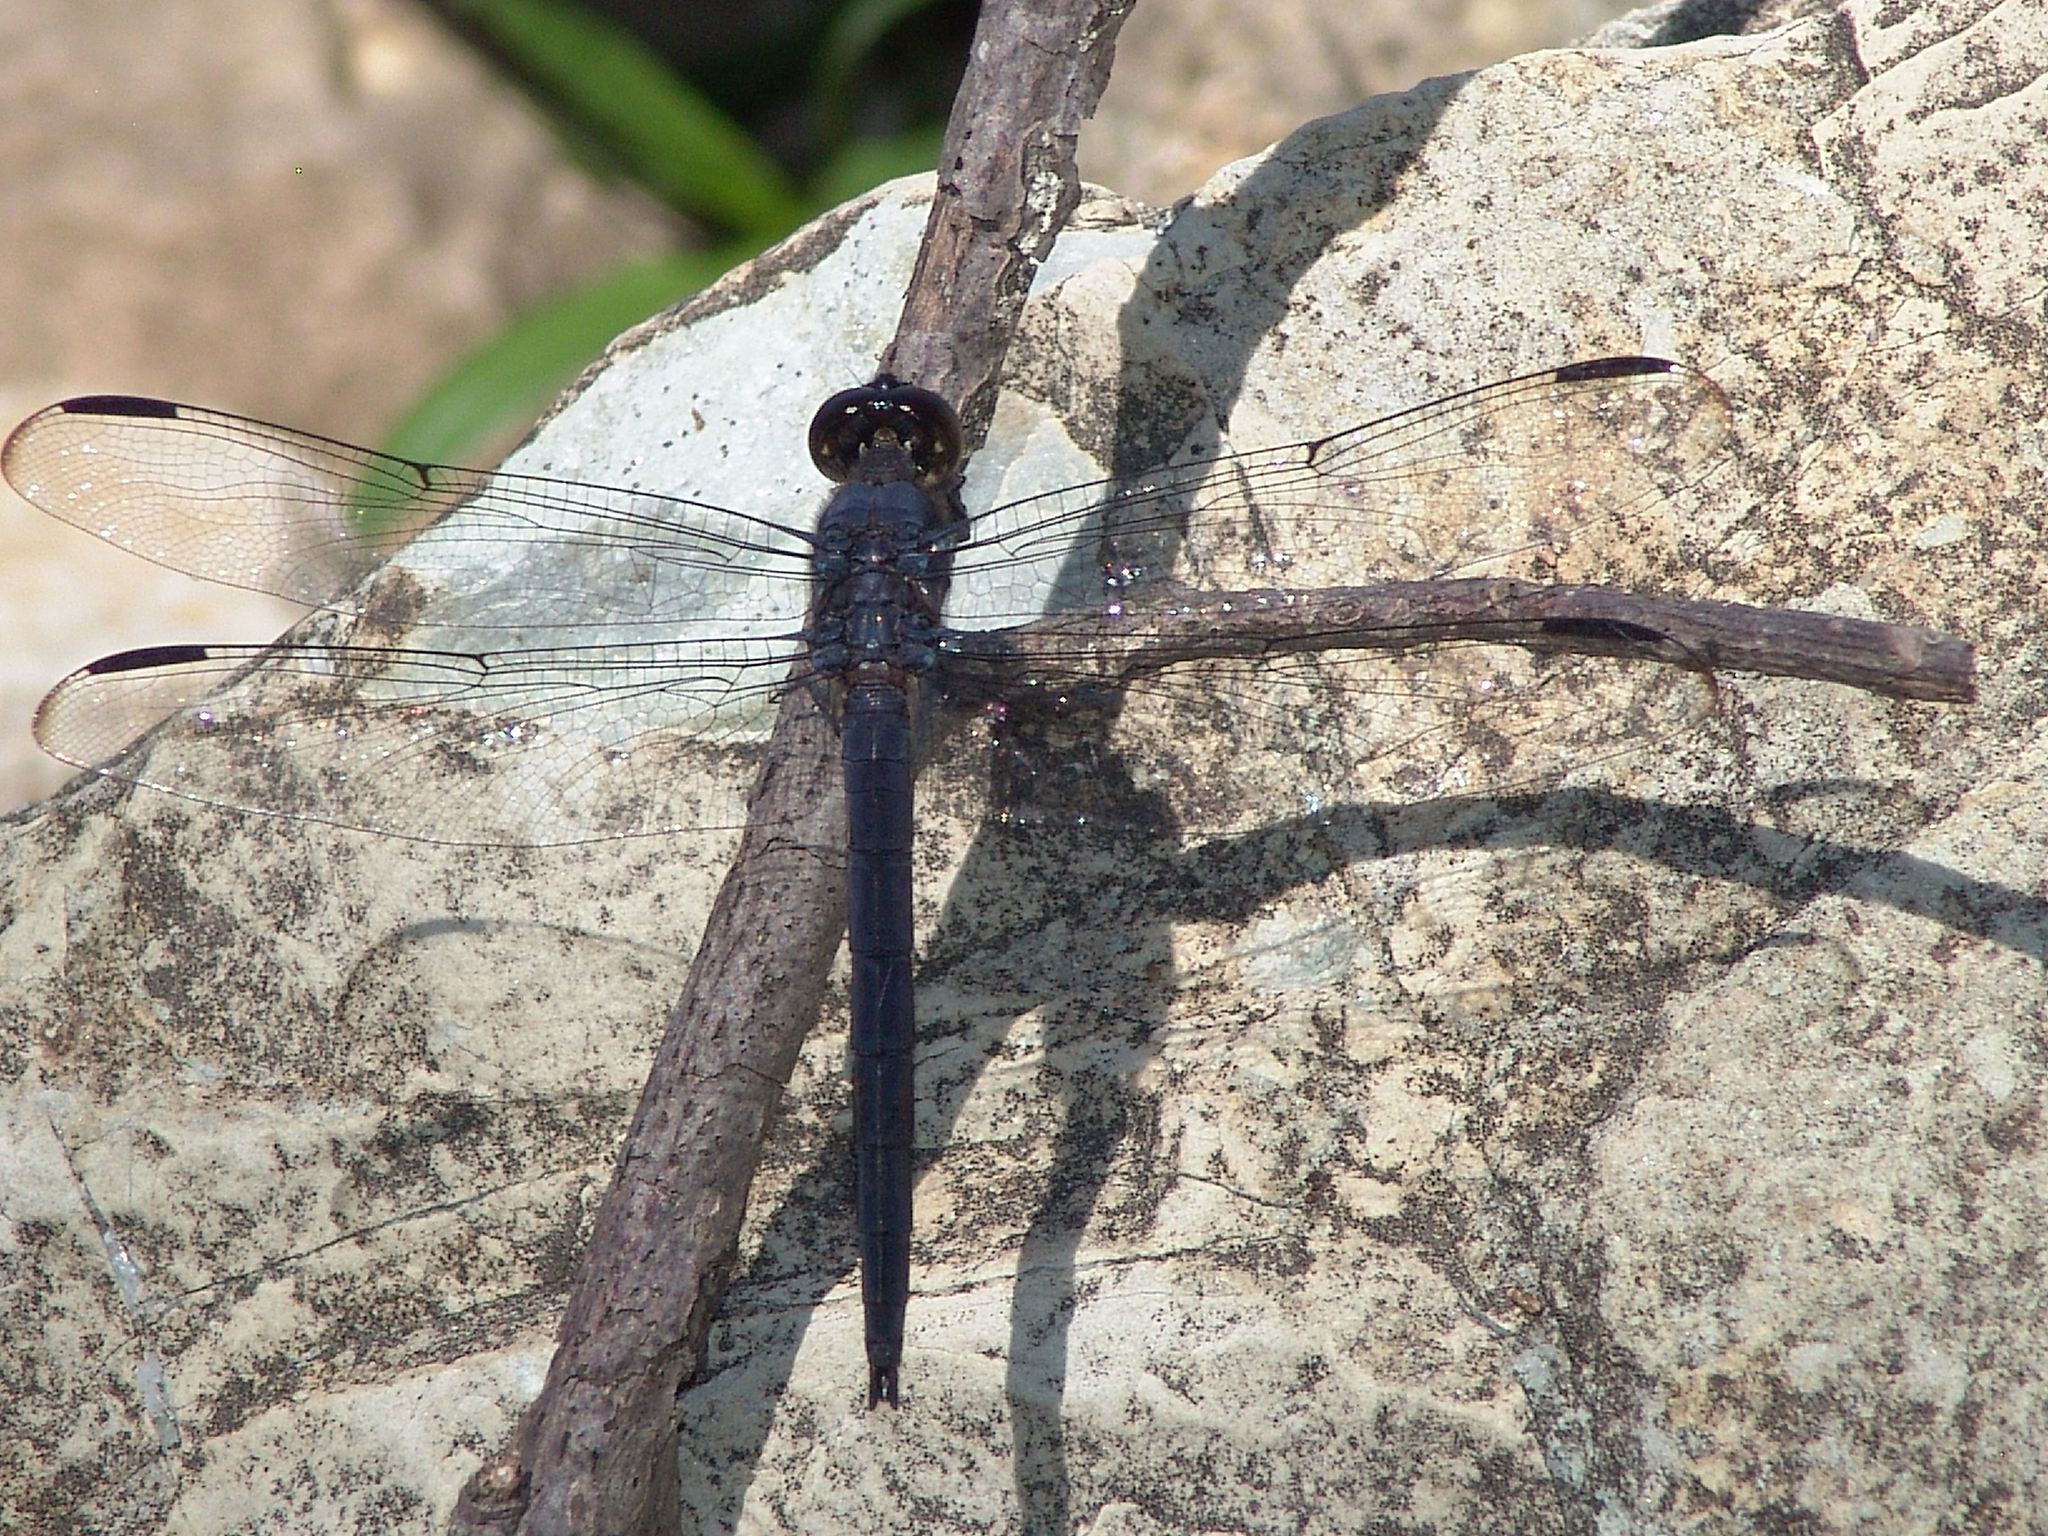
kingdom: Animalia
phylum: Arthropoda
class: Insecta
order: Odonata
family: Libellulidae
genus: Libellula
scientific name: Libellula incesta
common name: Slaty skimmer
